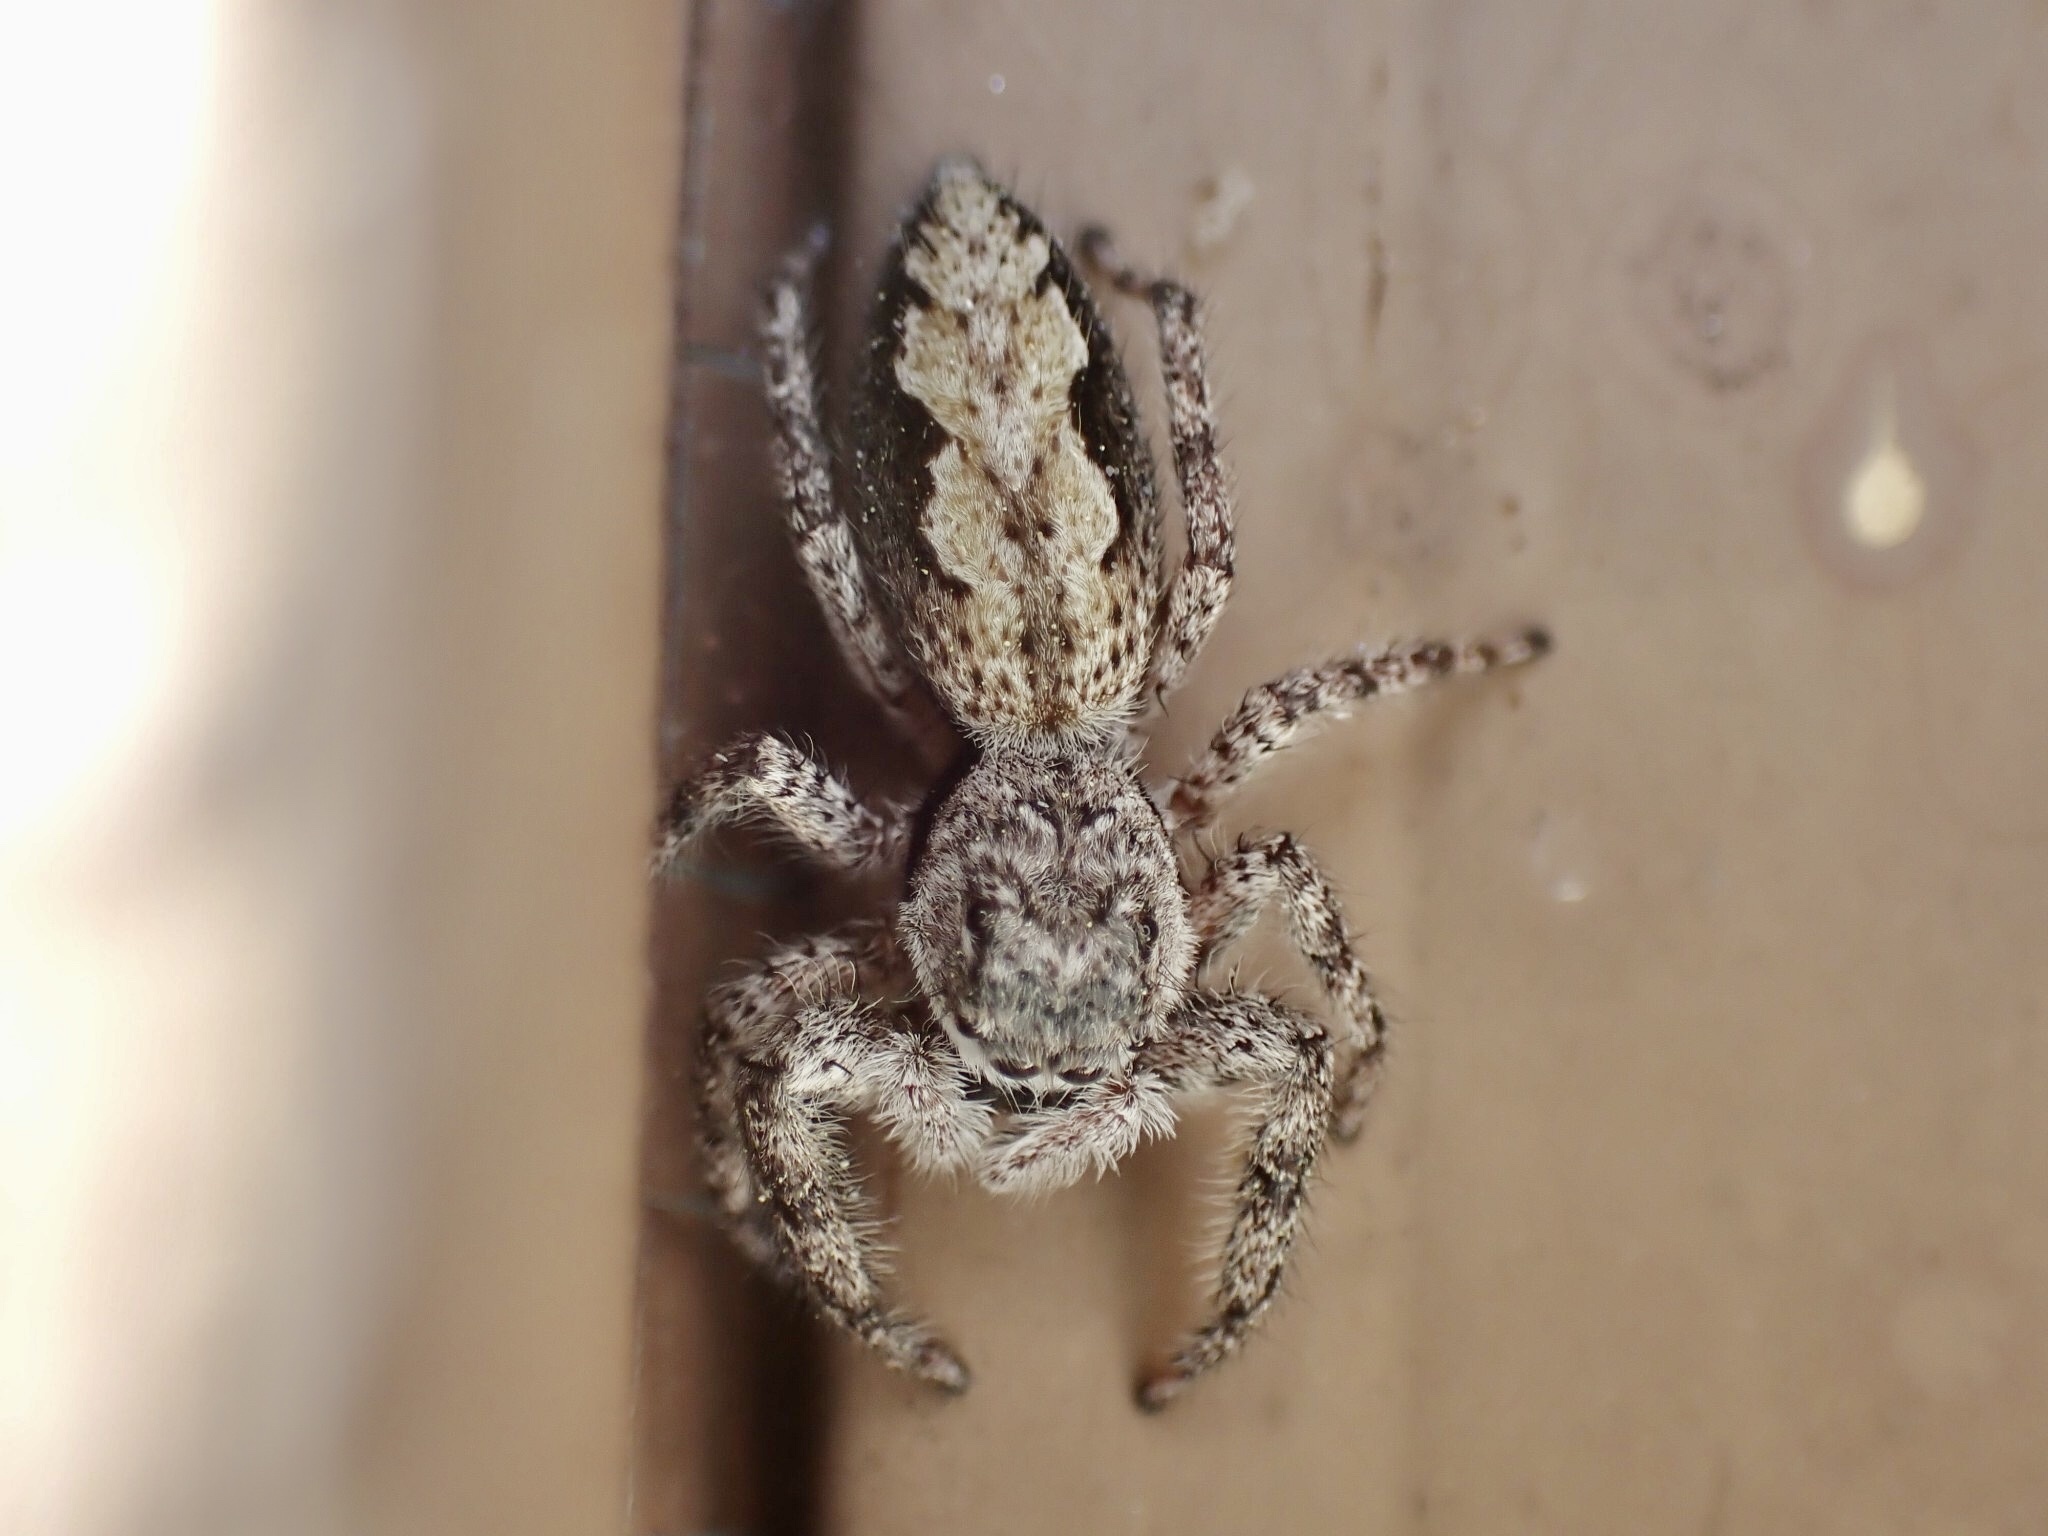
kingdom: Animalia
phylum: Arthropoda
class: Arachnida
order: Araneae
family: Salticidae
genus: Platycryptus
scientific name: Platycryptus undatus
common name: Tan jumping spider
